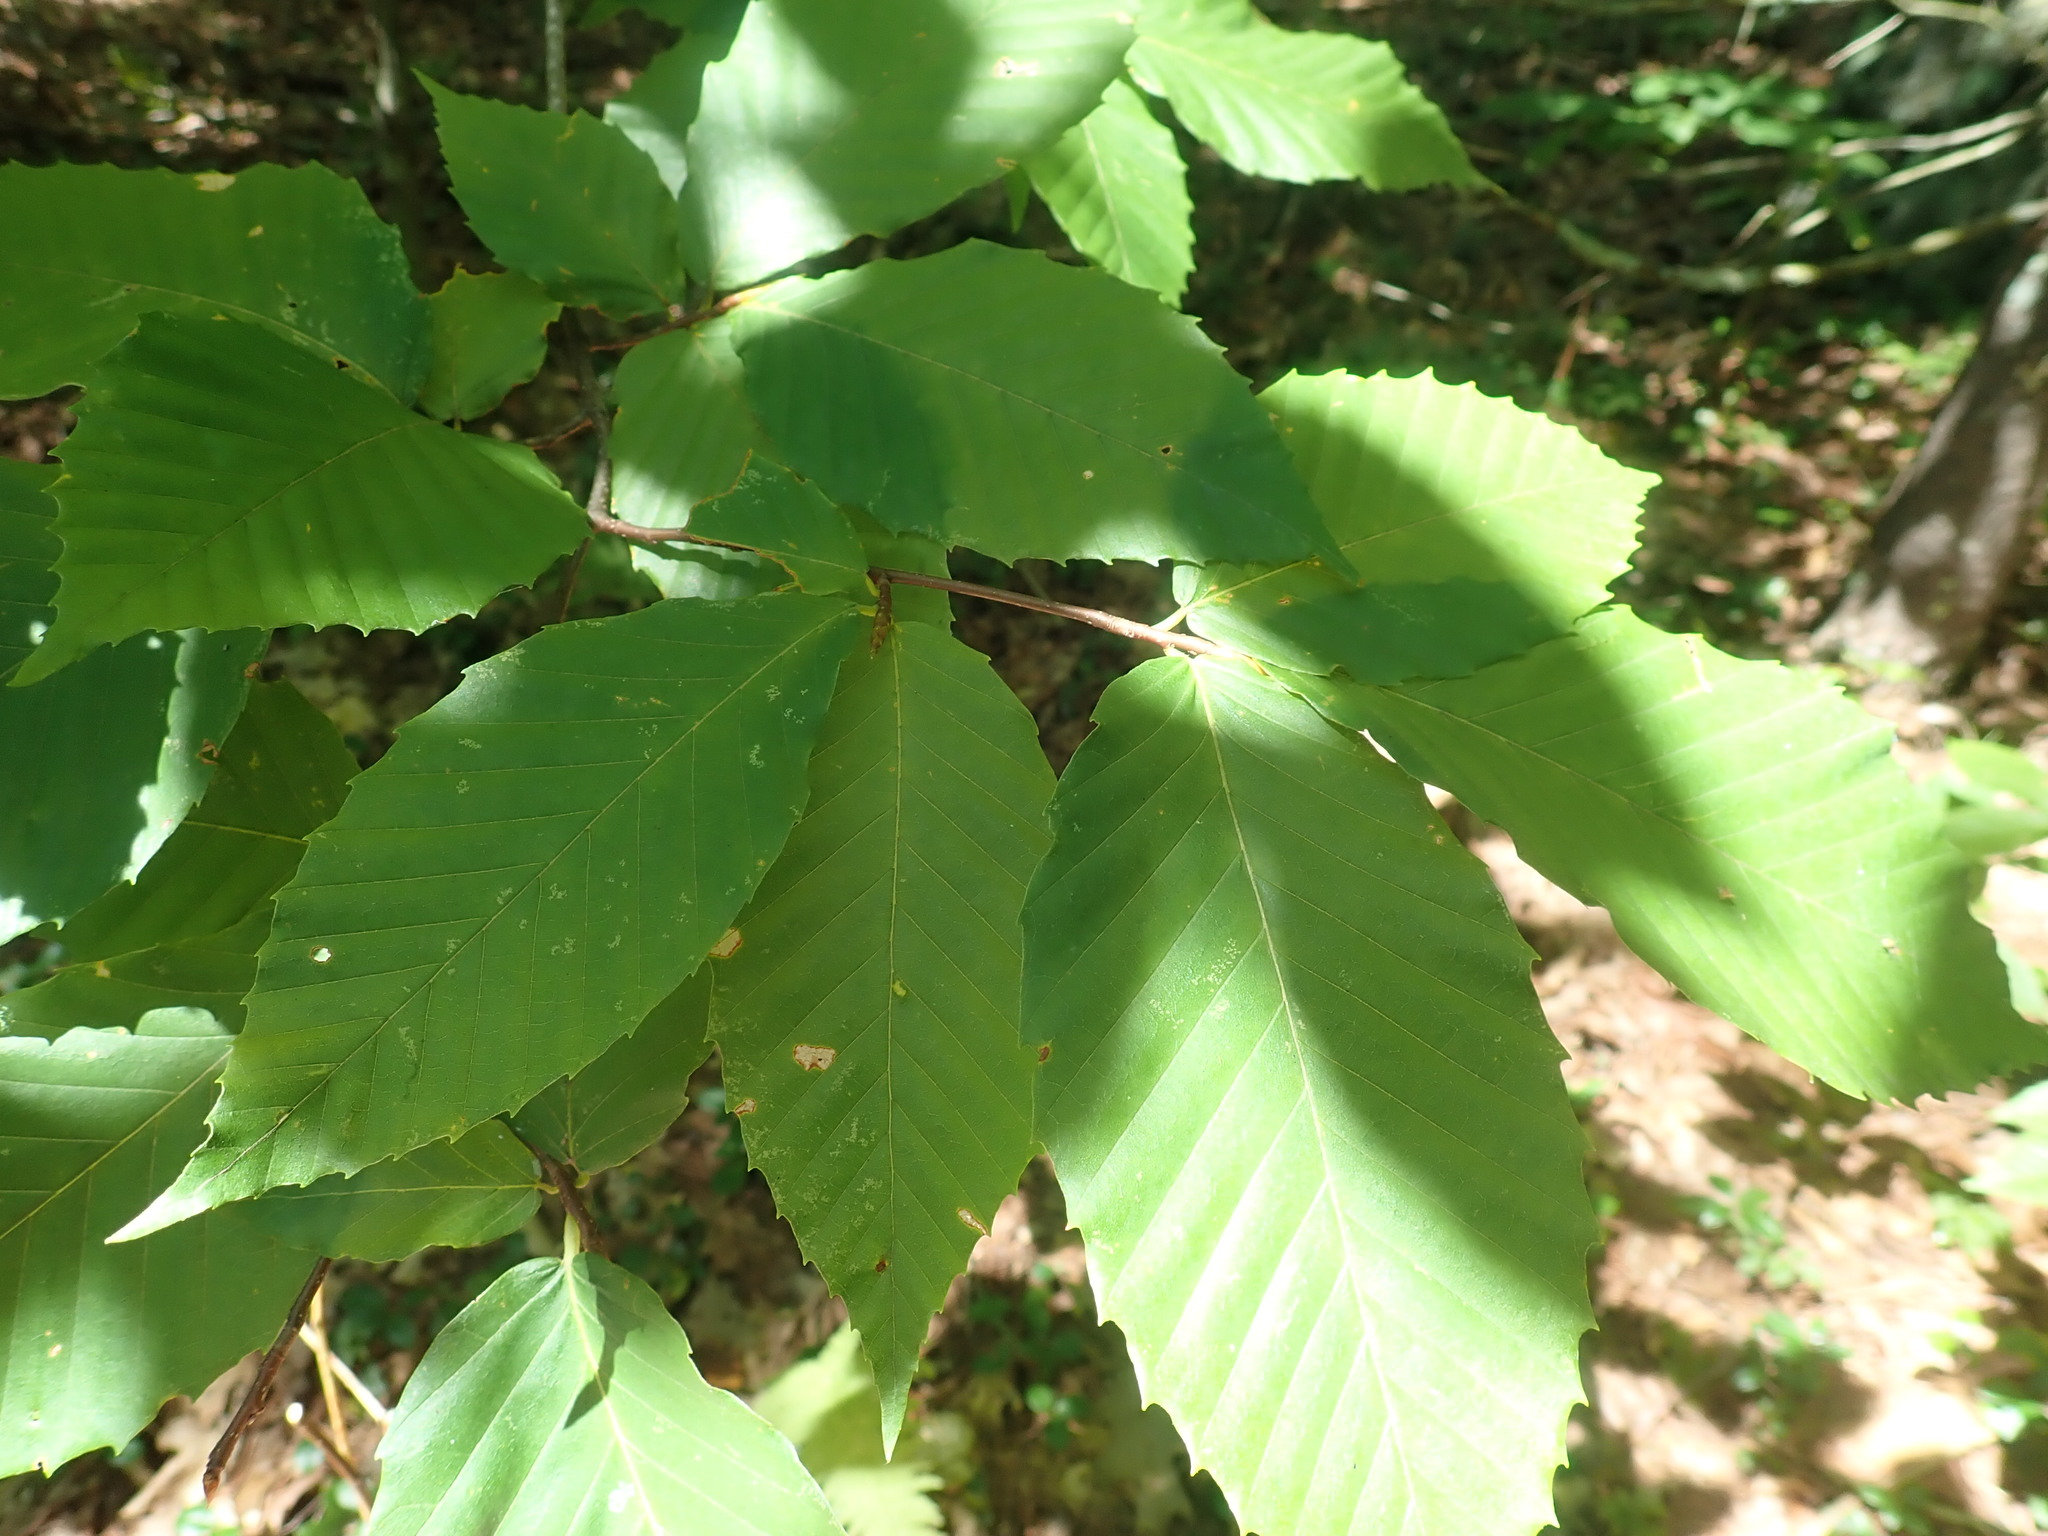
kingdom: Plantae
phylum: Tracheophyta
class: Magnoliopsida
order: Fagales
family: Fagaceae
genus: Fagus
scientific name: Fagus grandifolia
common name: American beech
